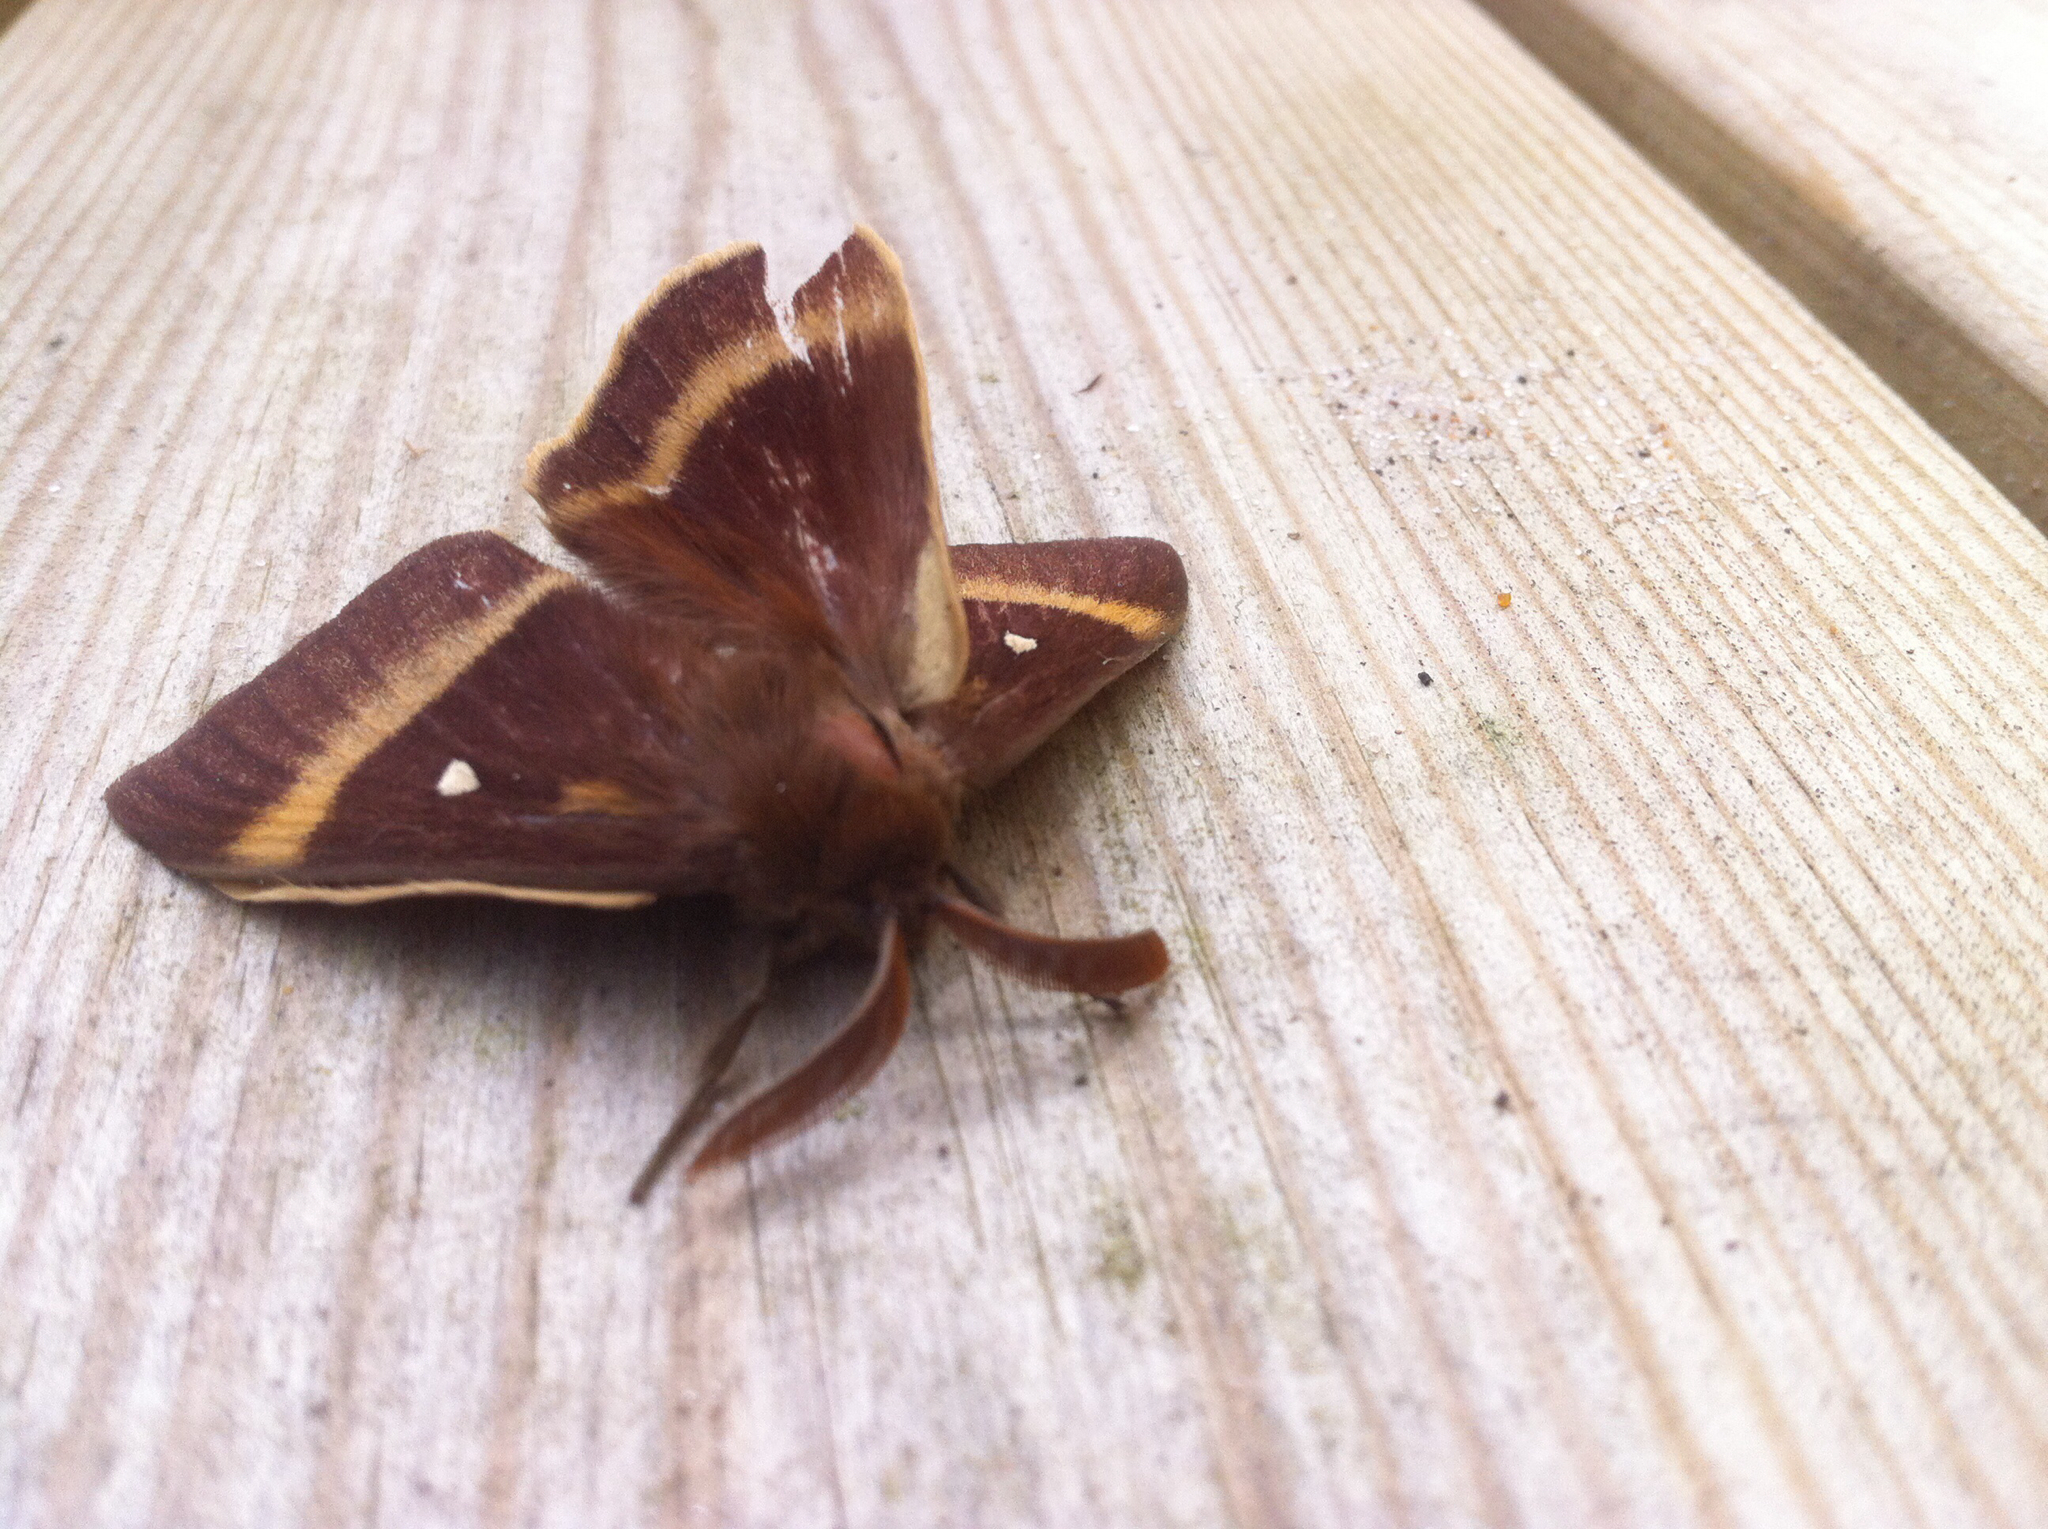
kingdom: Animalia
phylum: Arthropoda
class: Insecta
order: Lepidoptera
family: Lasiocampidae
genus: Lasiocampa
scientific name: Lasiocampa quercus
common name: Oak eggar
